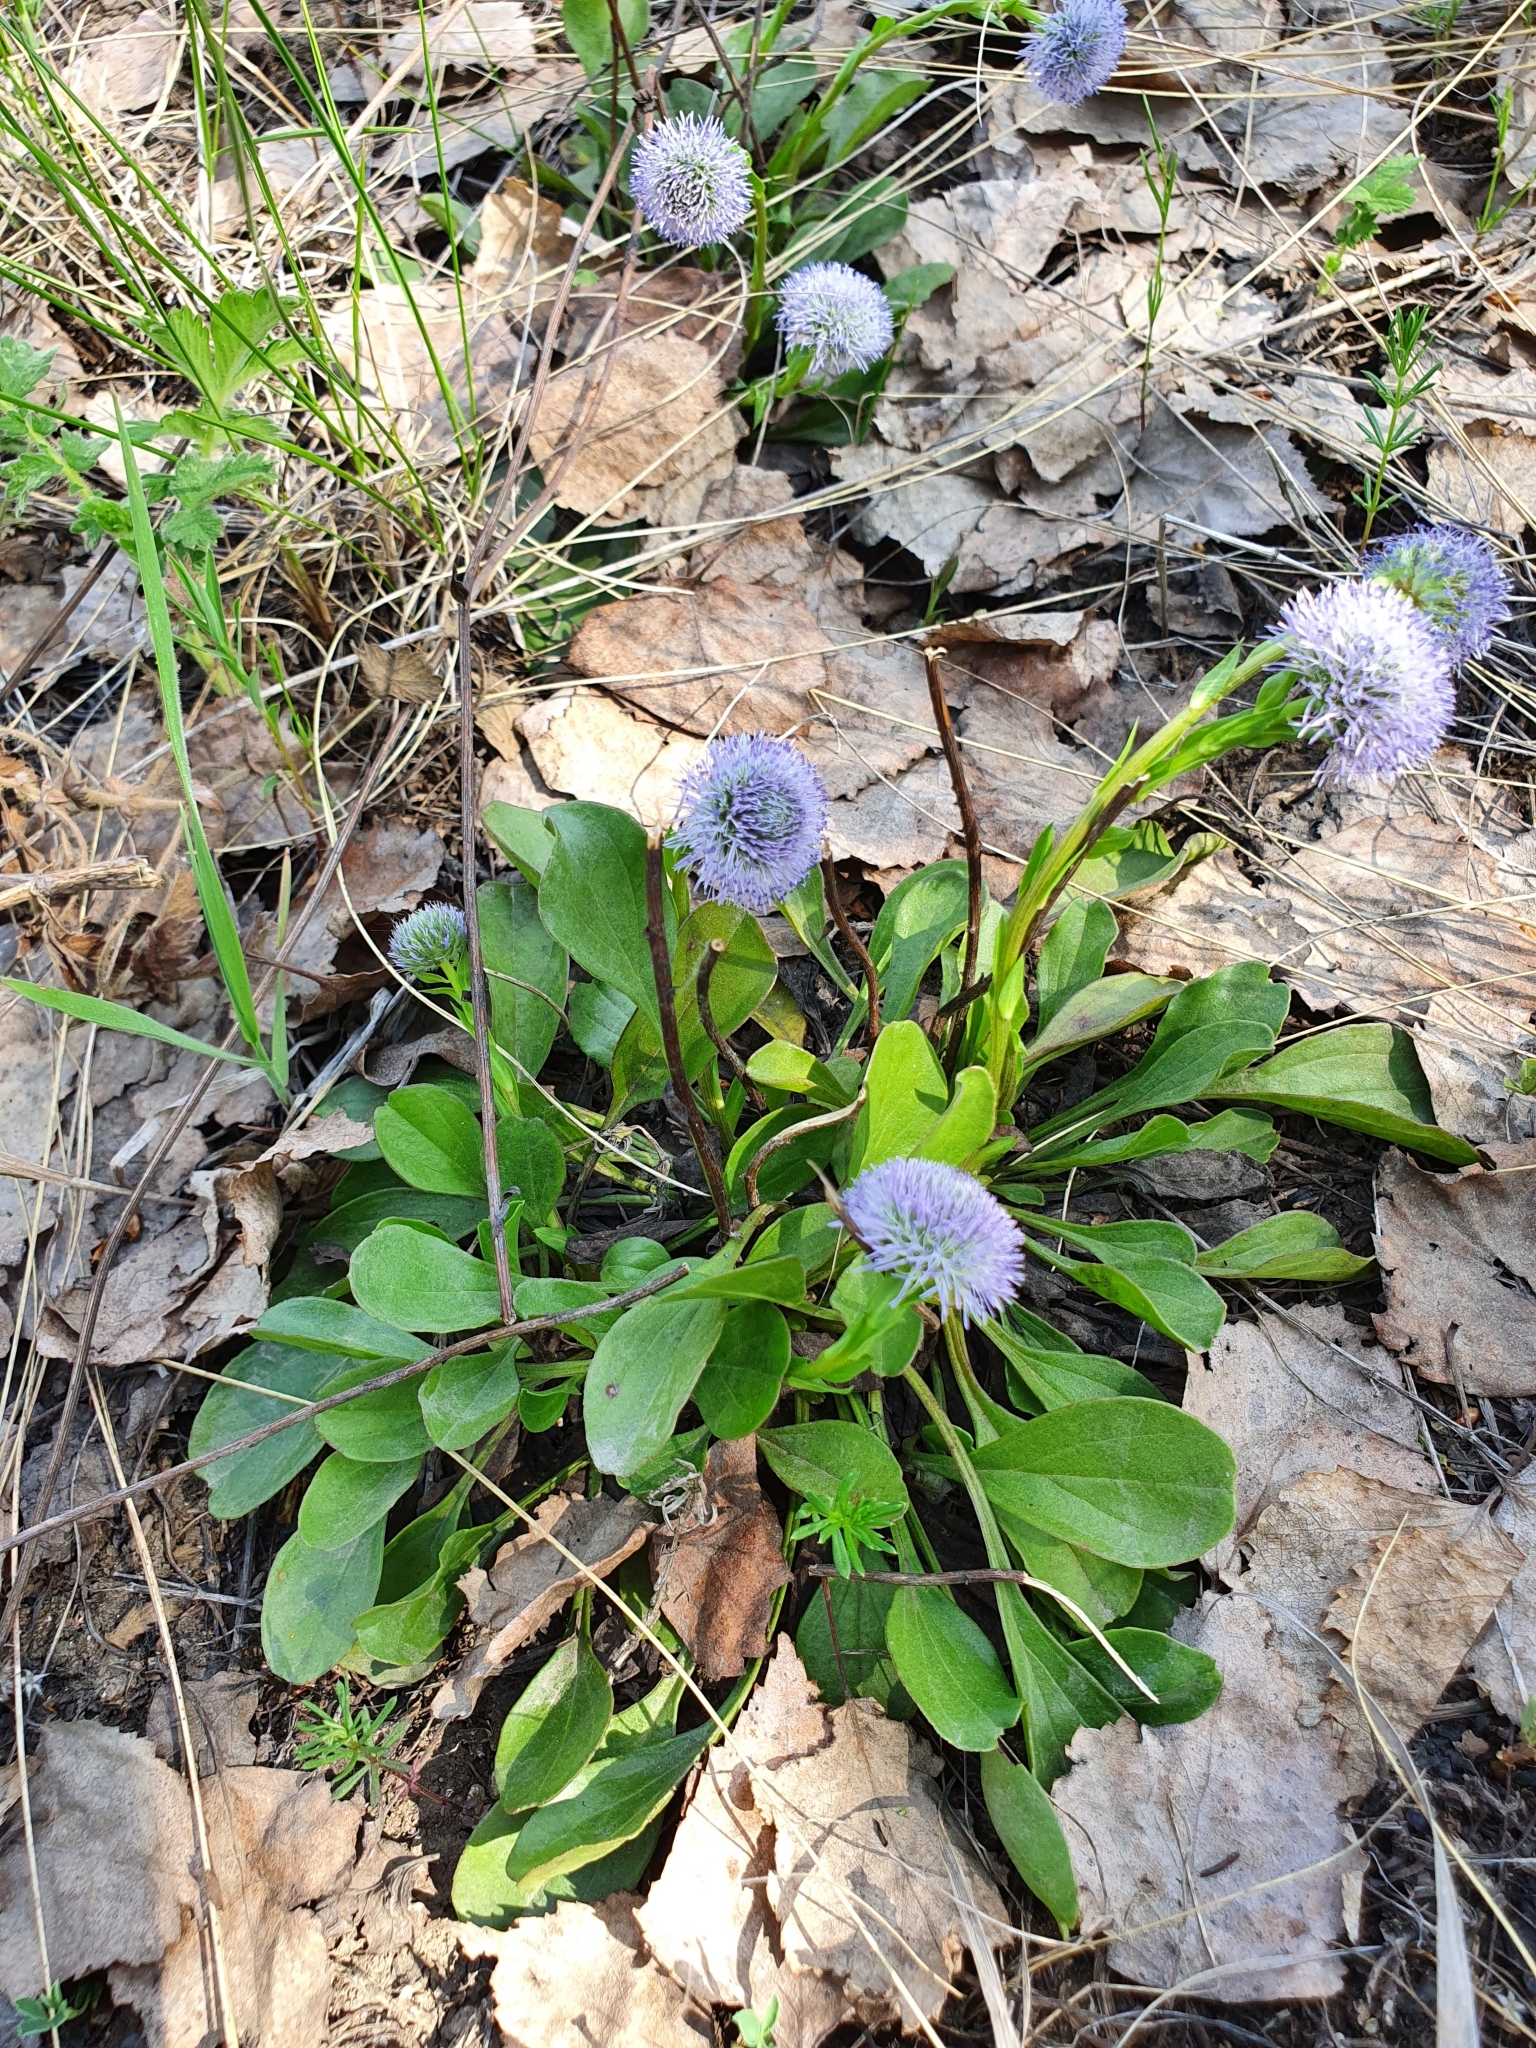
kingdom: Plantae
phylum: Tracheophyta
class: Magnoliopsida
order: Lamiales
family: Plantaginaceae
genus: Globularia
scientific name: Globularia bisnagarica
